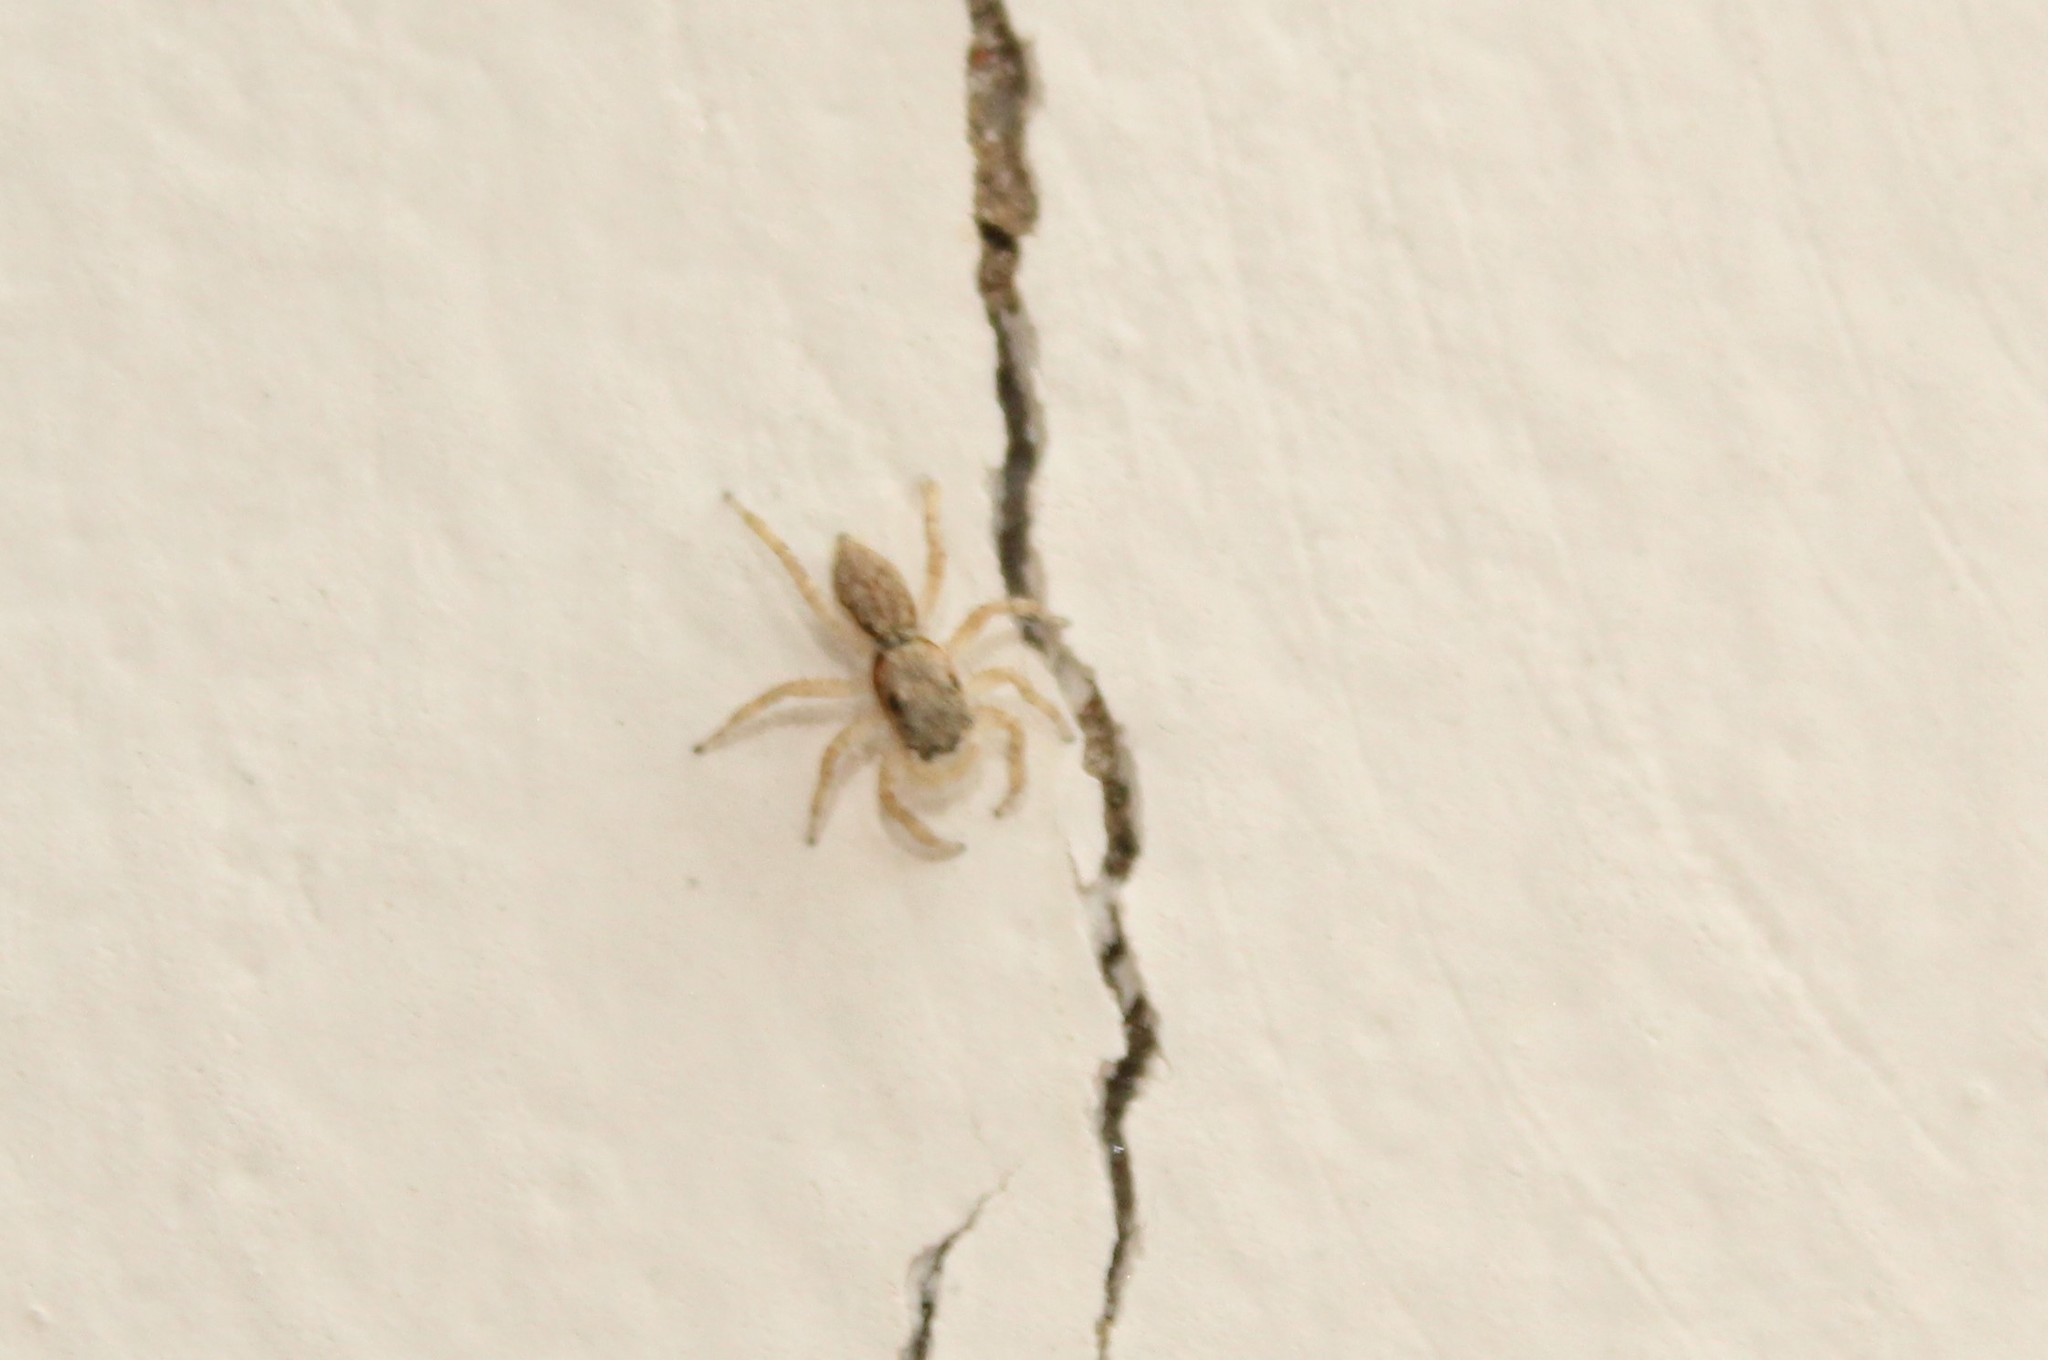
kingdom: Animalia
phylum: Arthropoda
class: Arachnida
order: Araneae
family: Salticidae
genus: Menemerus
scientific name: Menemerus bivittatus
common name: Gray wall jumper
